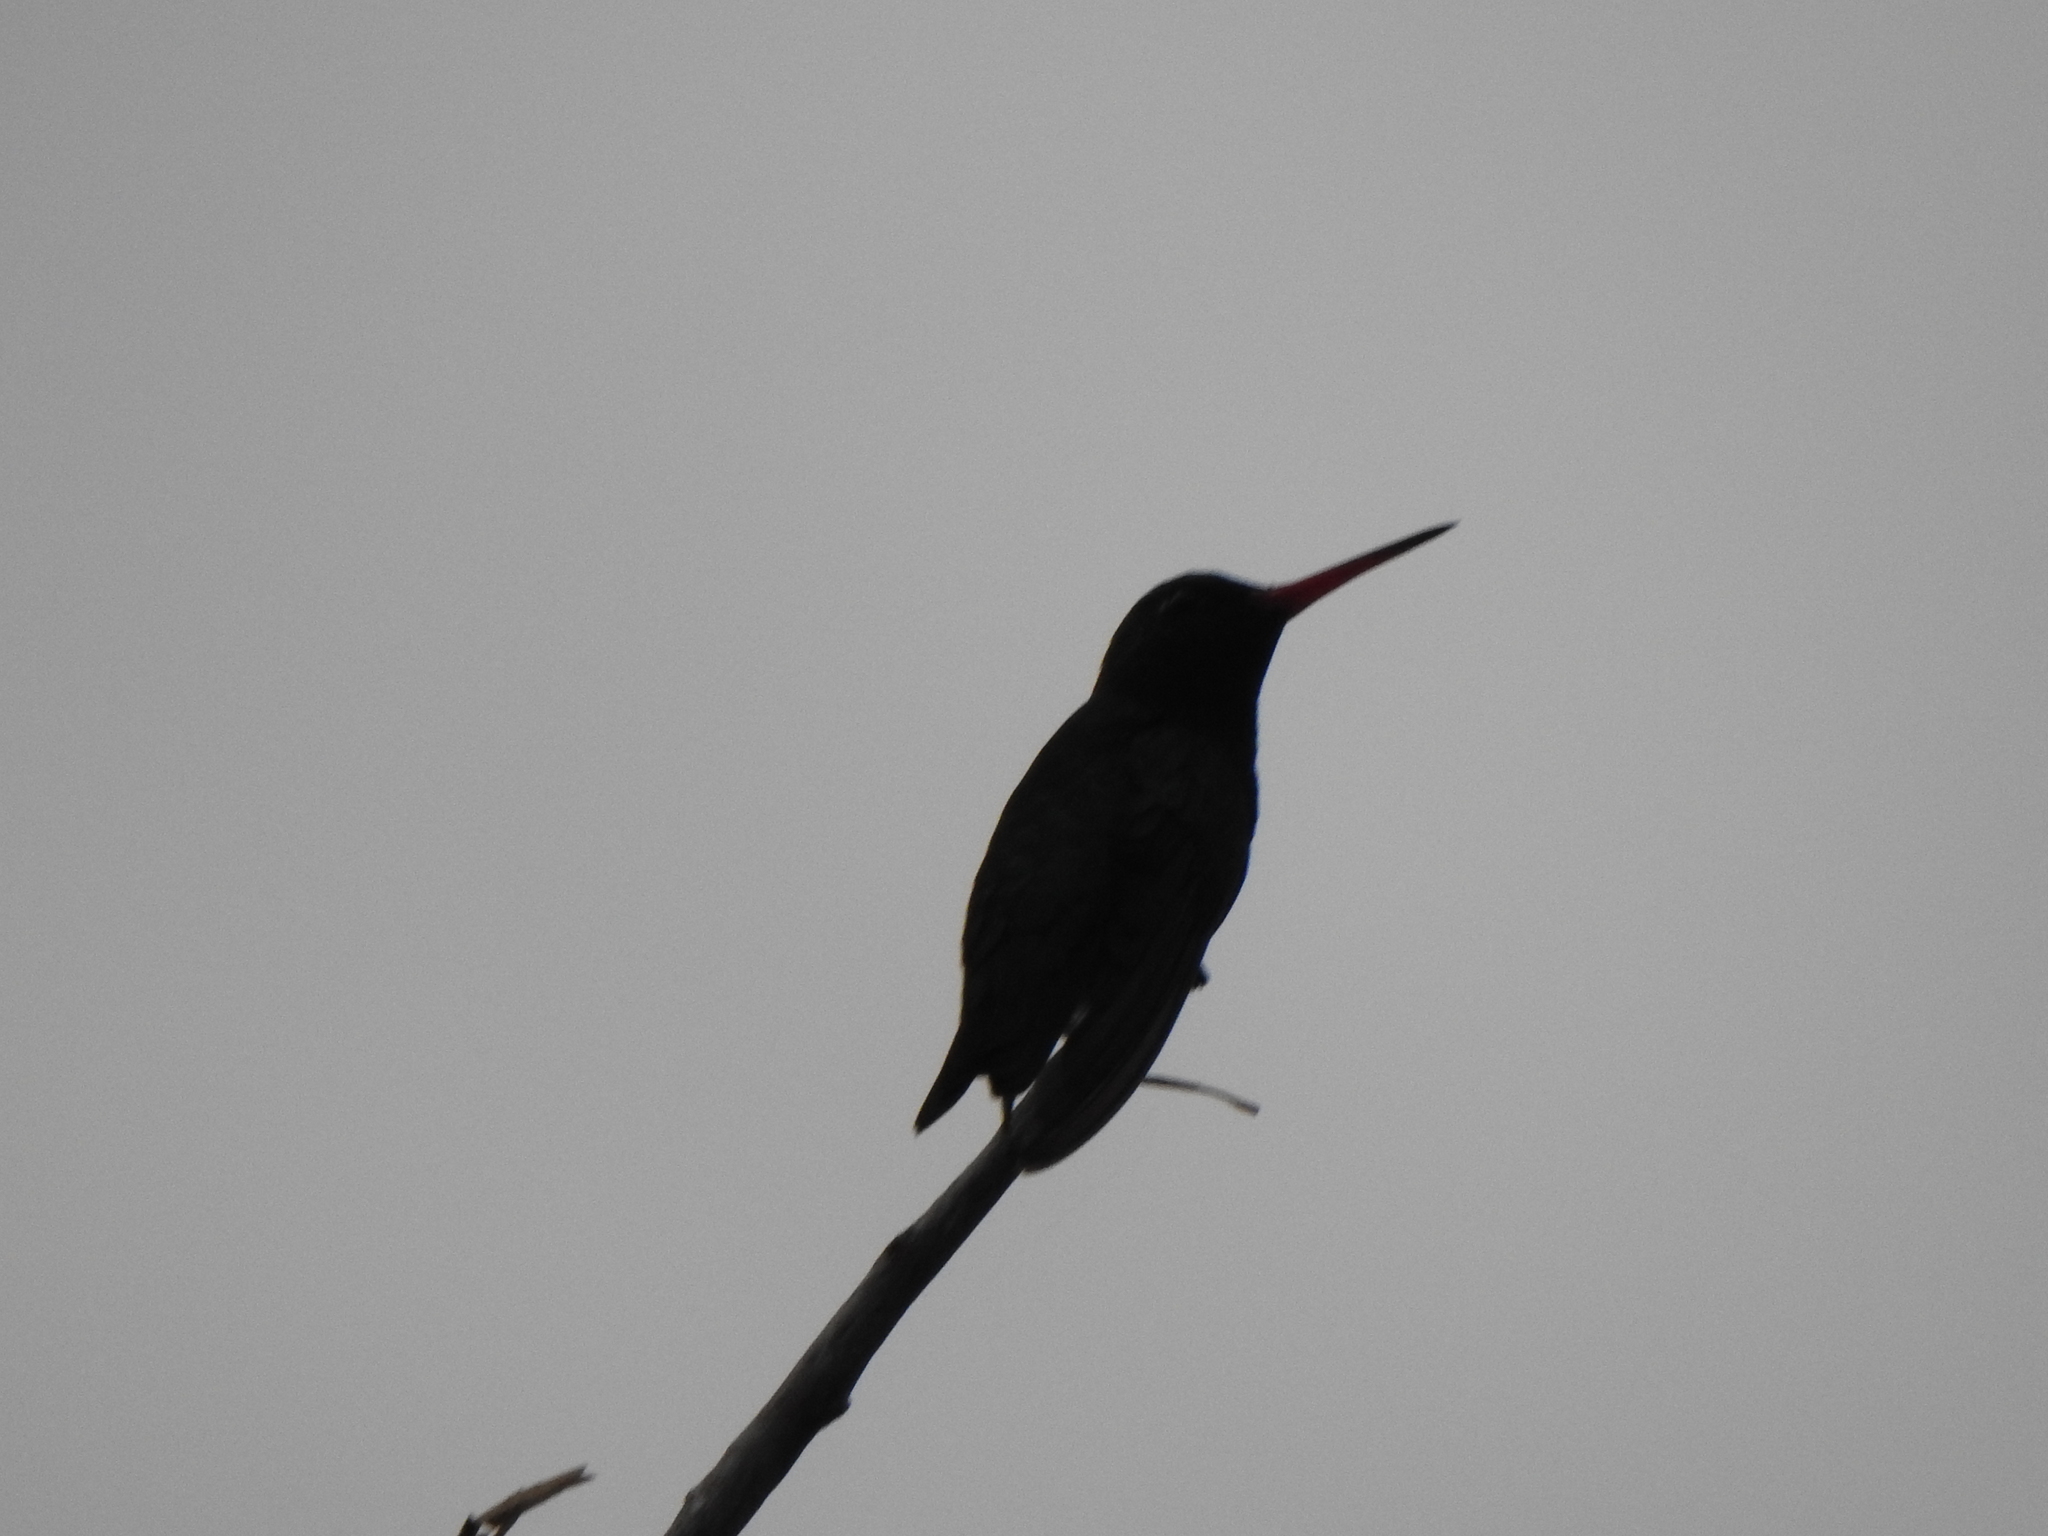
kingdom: Animalia
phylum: Chordata
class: Aves
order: Apodiformes
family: Trochilidae
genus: Chlorostilbon
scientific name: Chlorostilbon lucidus
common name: Glittering-bellied emerald
